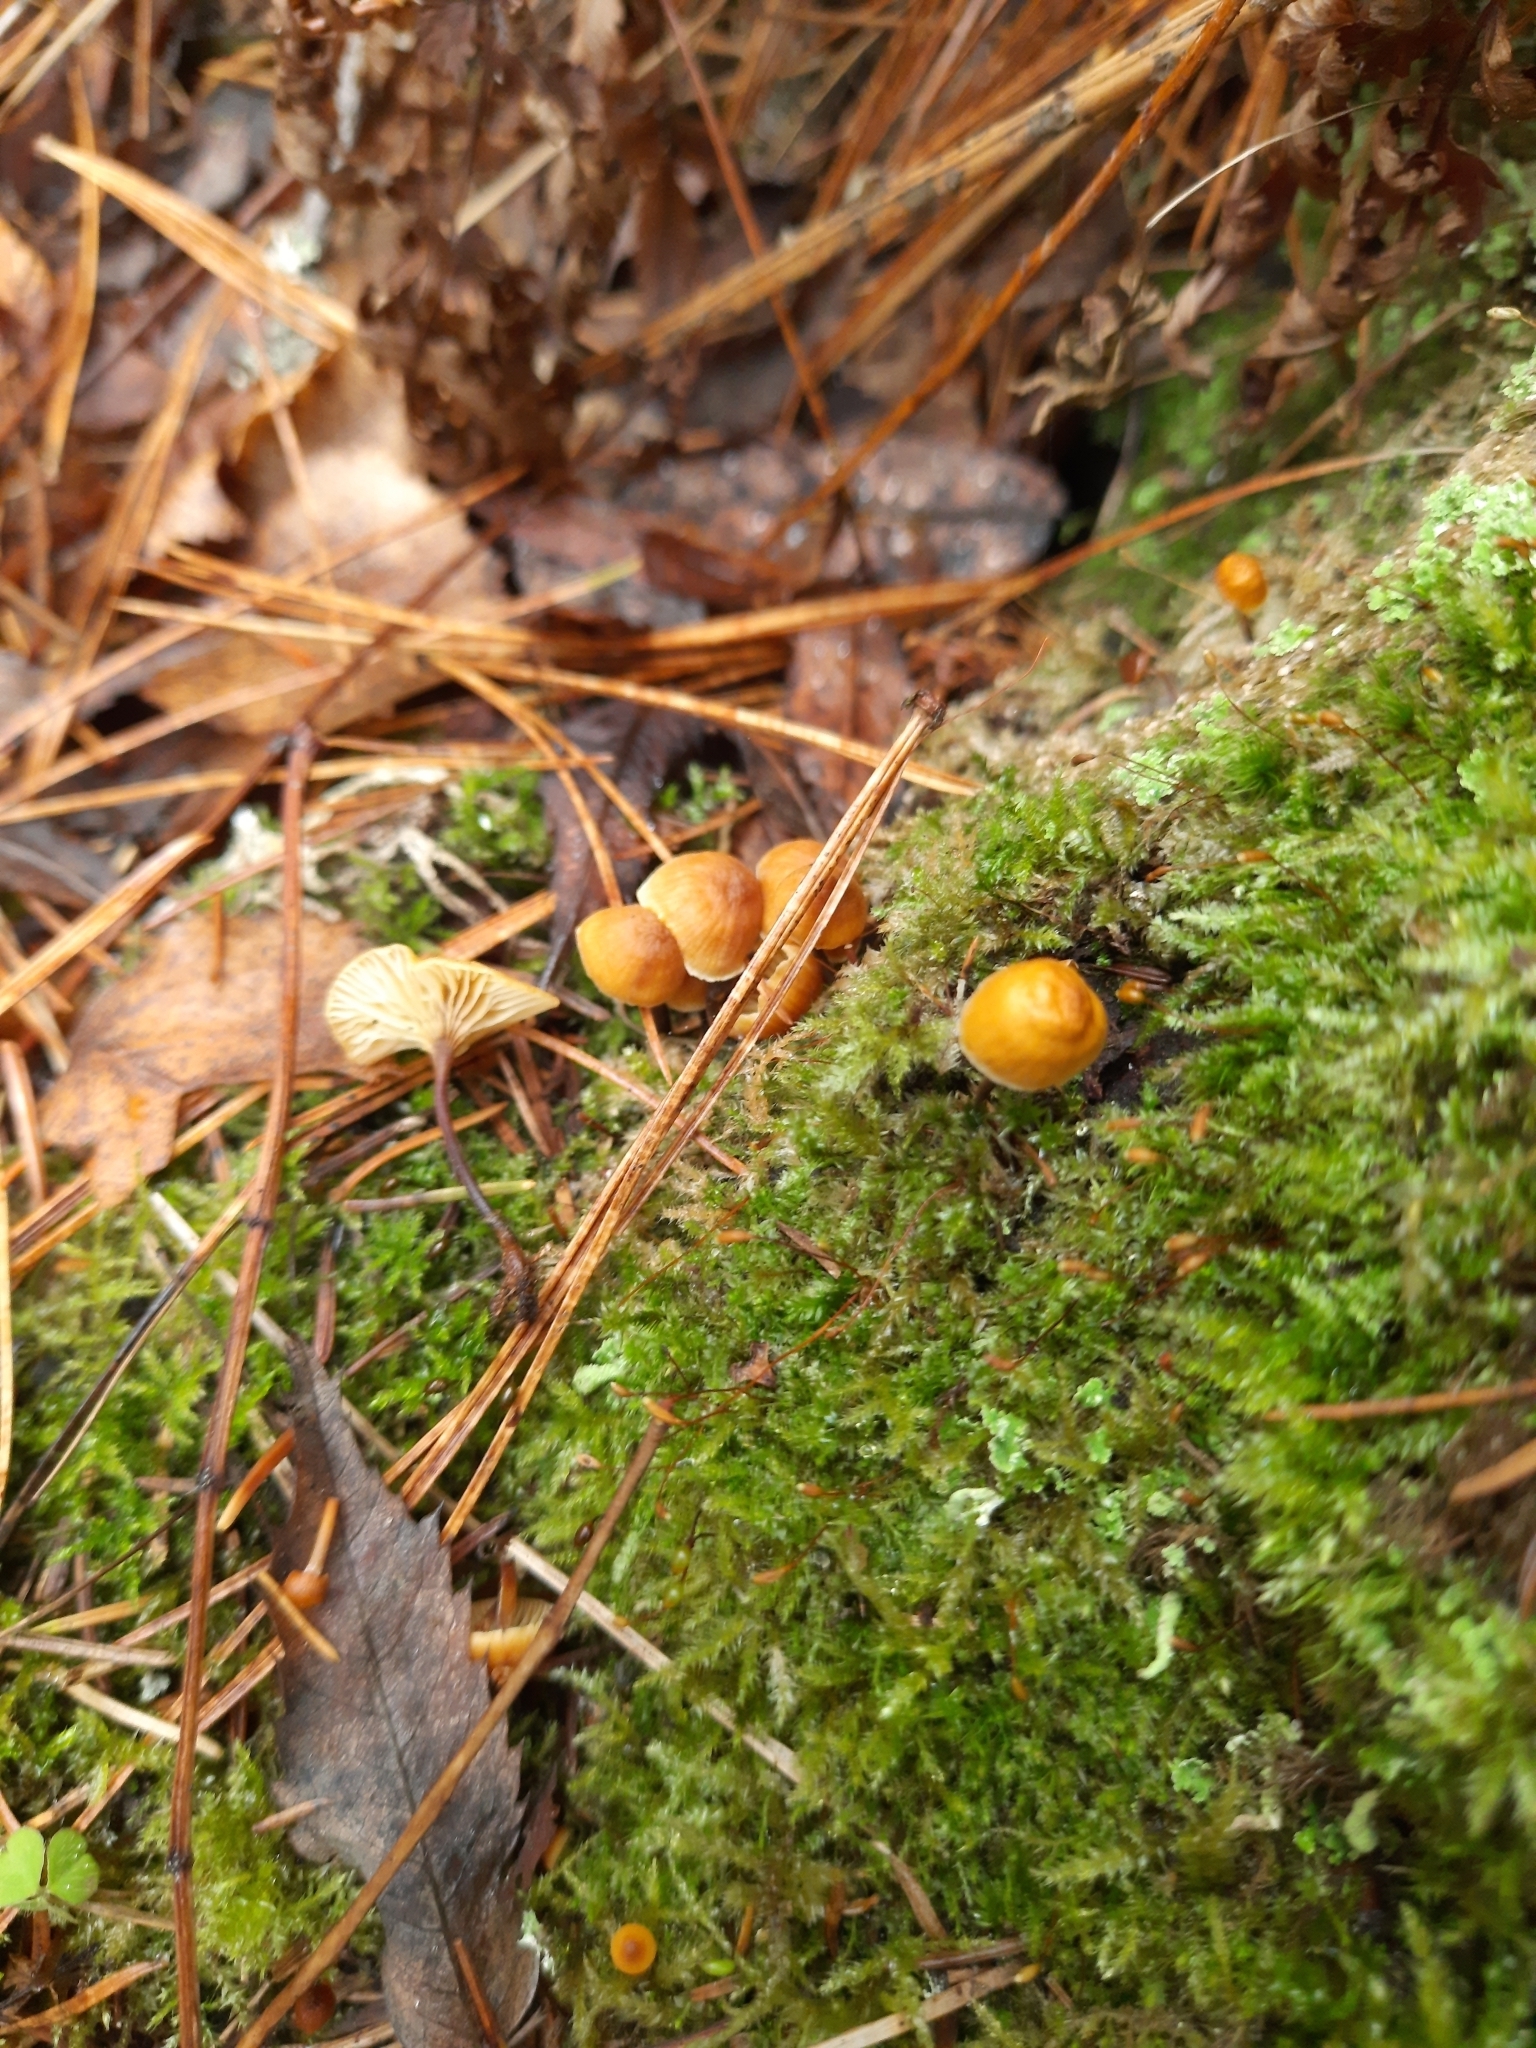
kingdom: Fungi
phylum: Basidiomycota
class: Agaricomycetes
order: Agaricales
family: Mycenaceae
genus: Xeromphalina
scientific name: Xeromphalina campanella
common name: Pinewood gingertail
